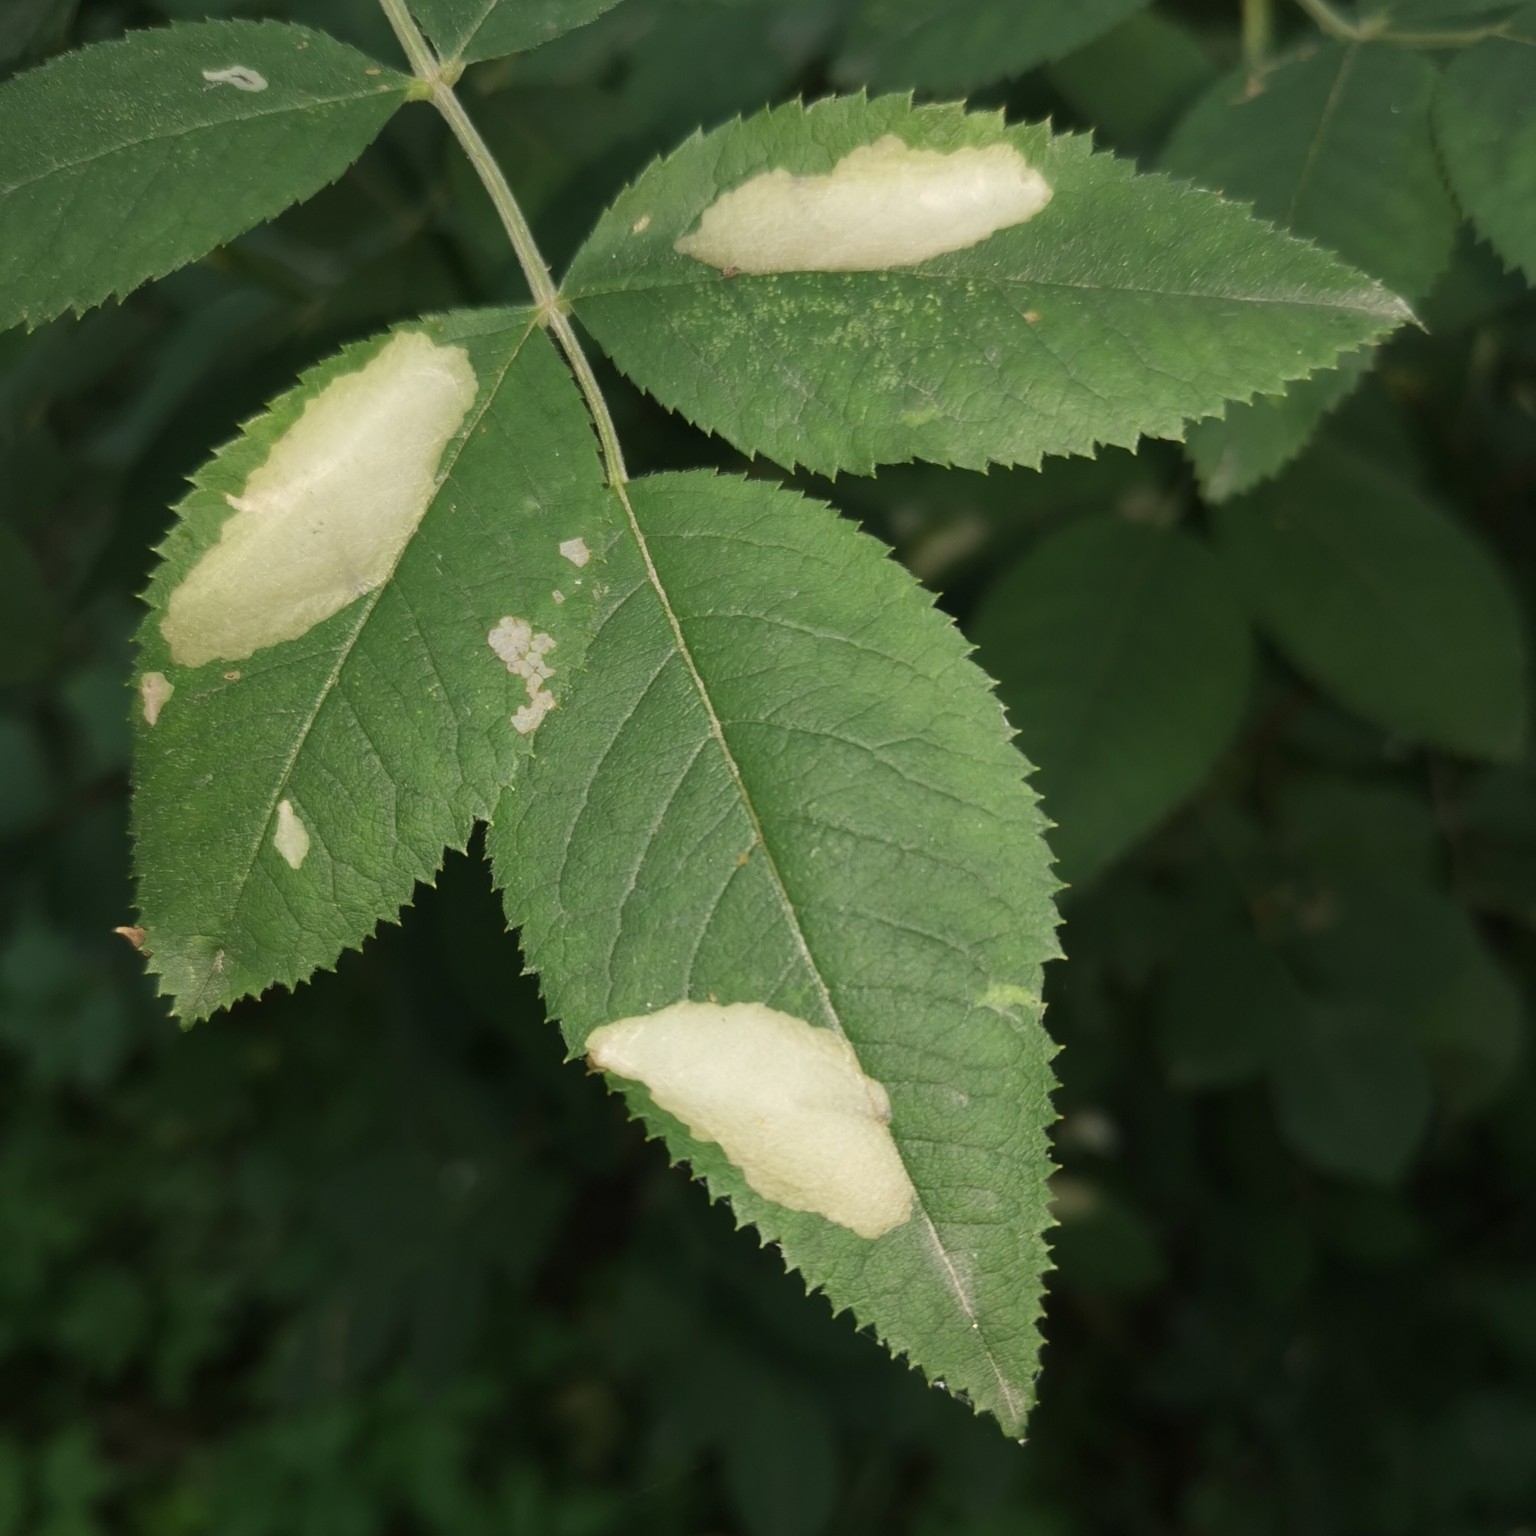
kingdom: Animalia
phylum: Arthropoda
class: Insecta
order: Lepidoptera
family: Tischeriidae
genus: Coptotriche
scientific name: Coptotriche angusticolella
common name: Rose carl
